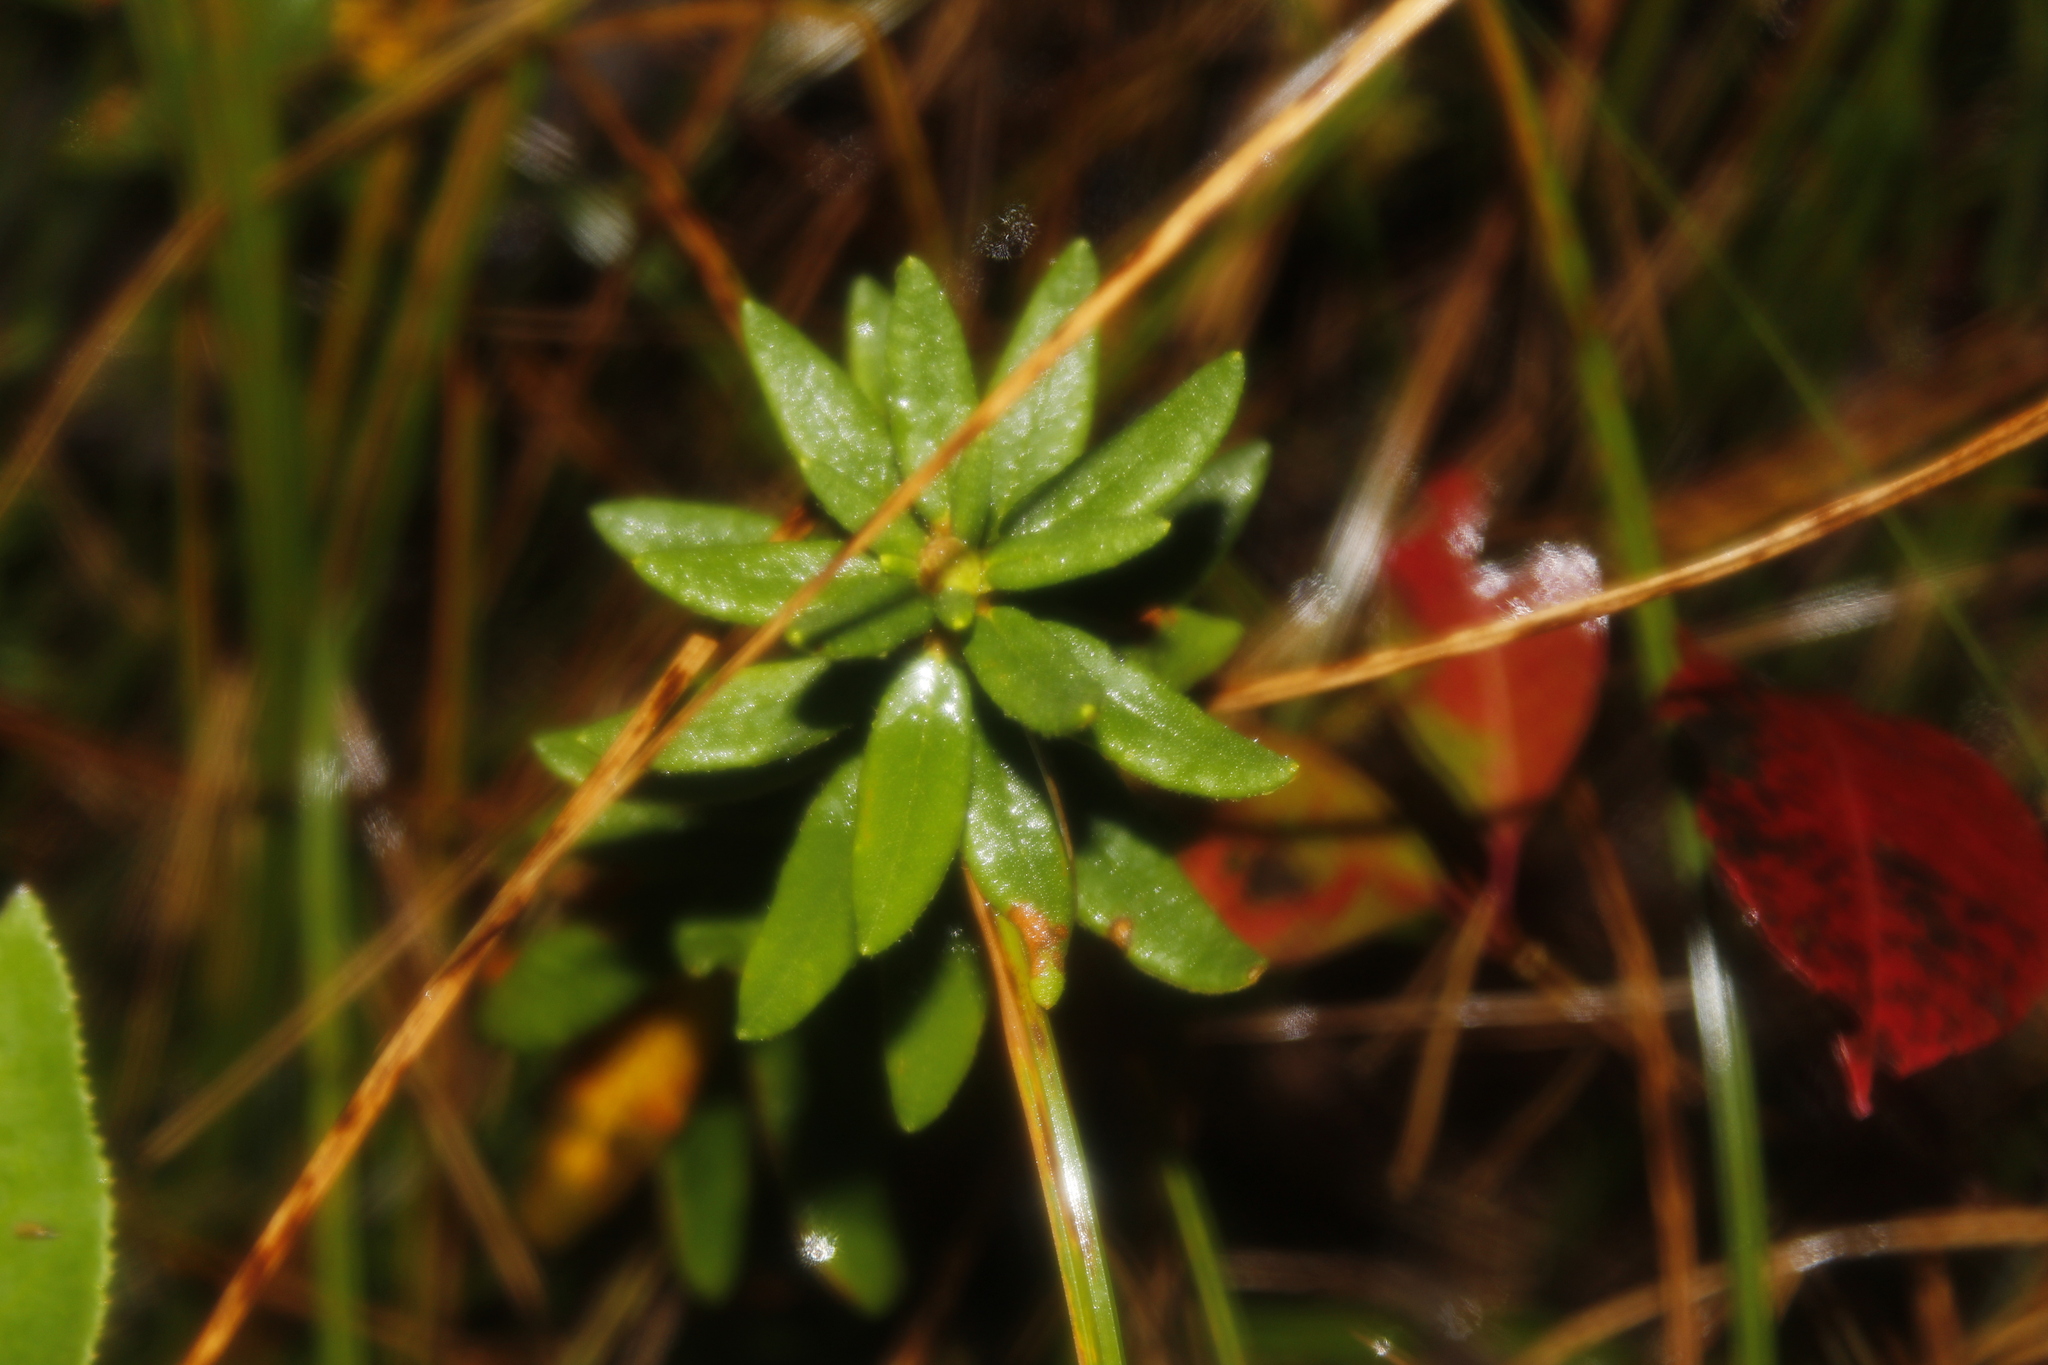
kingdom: Plantae
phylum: Tracheophyta
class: Magnoliopsida
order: Ericales
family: Ericaceae
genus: Rhododendron
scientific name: Rhododendron groenlandicum
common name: Bog labrador tea
